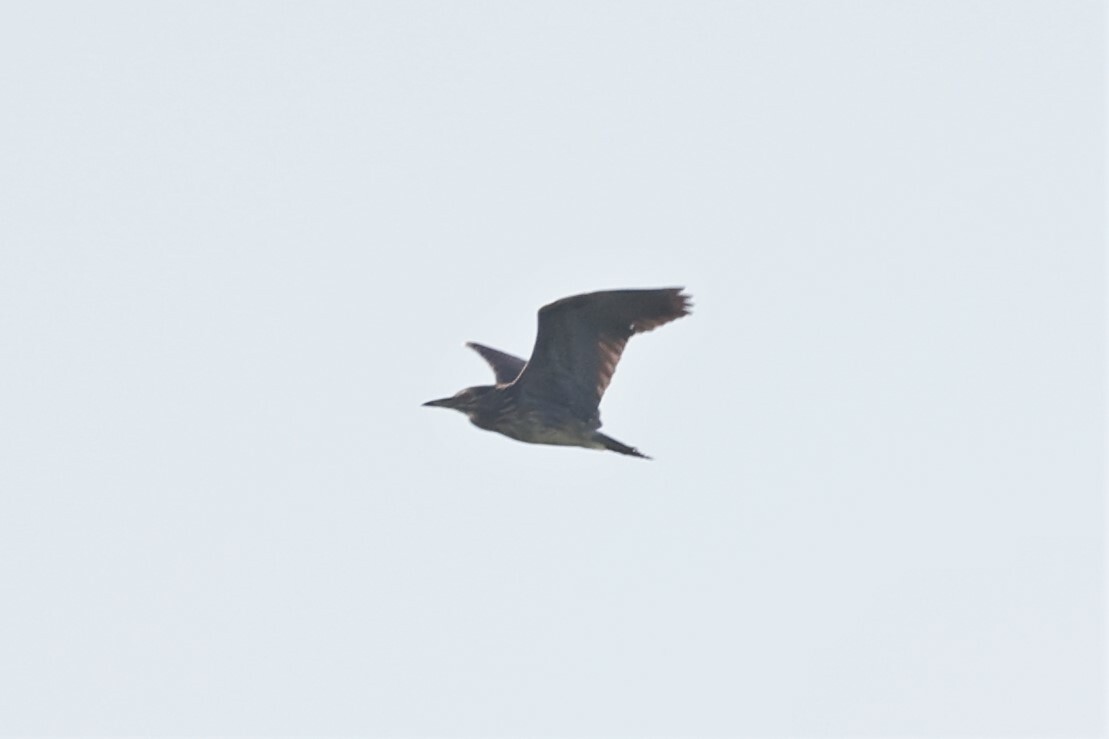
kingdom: Animalia
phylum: Chordata
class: Aves
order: Pelecaniformes
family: Ardeidae
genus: Nycticorax
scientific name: Nycticorax nycticorax
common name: Black-crowned night heron
